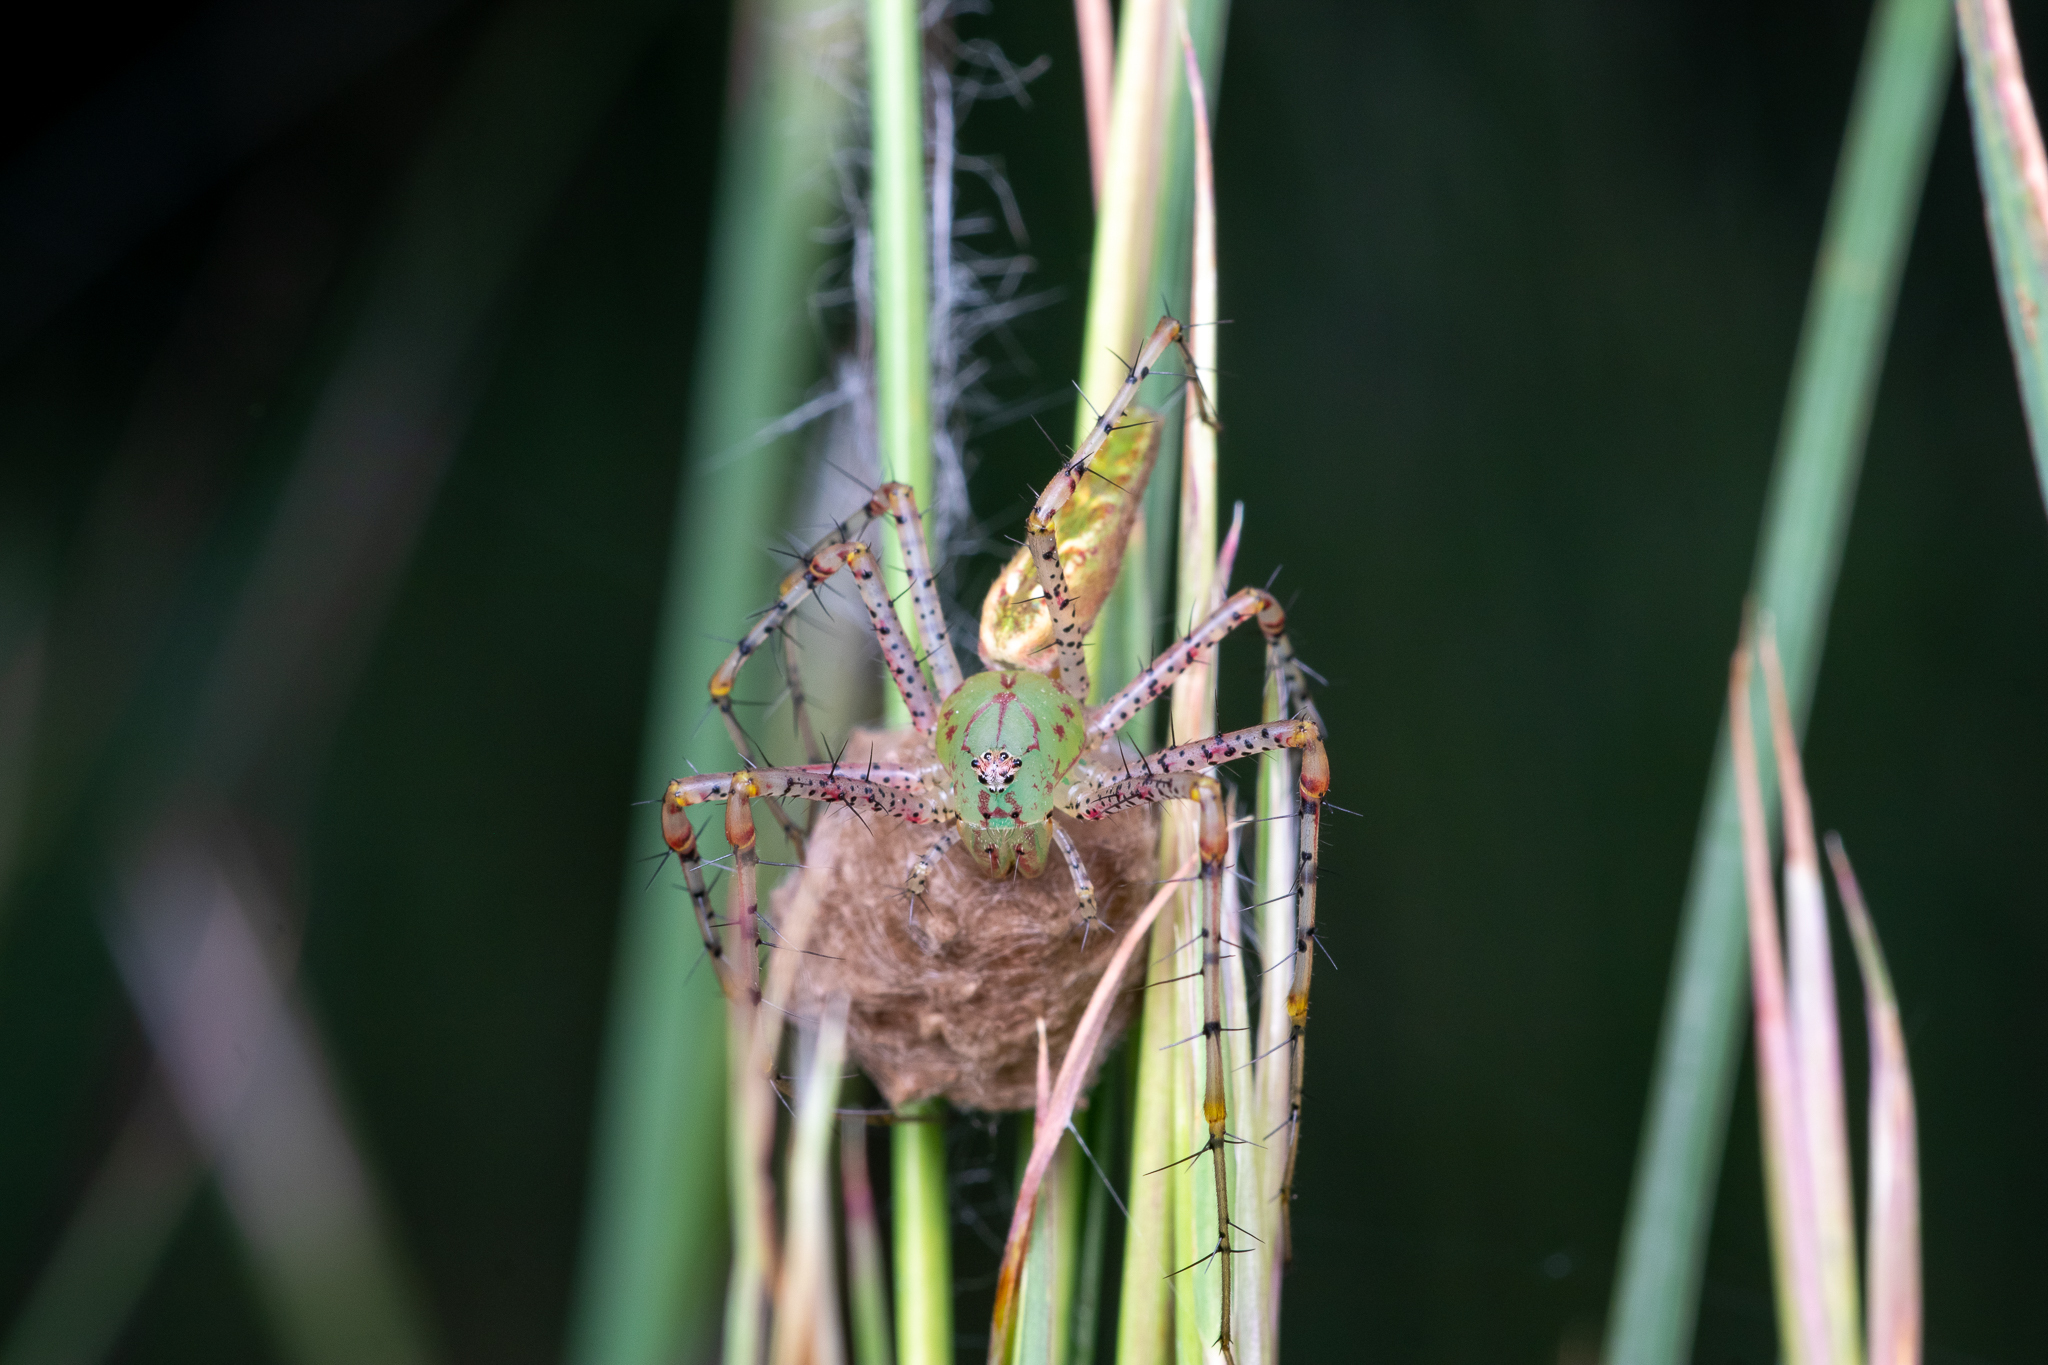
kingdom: Animalia
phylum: Arthropoda
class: Arachnida
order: Araneae
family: Oxyopidae
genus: Peucetia
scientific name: Peucetia viridans
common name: Lynx spiders
